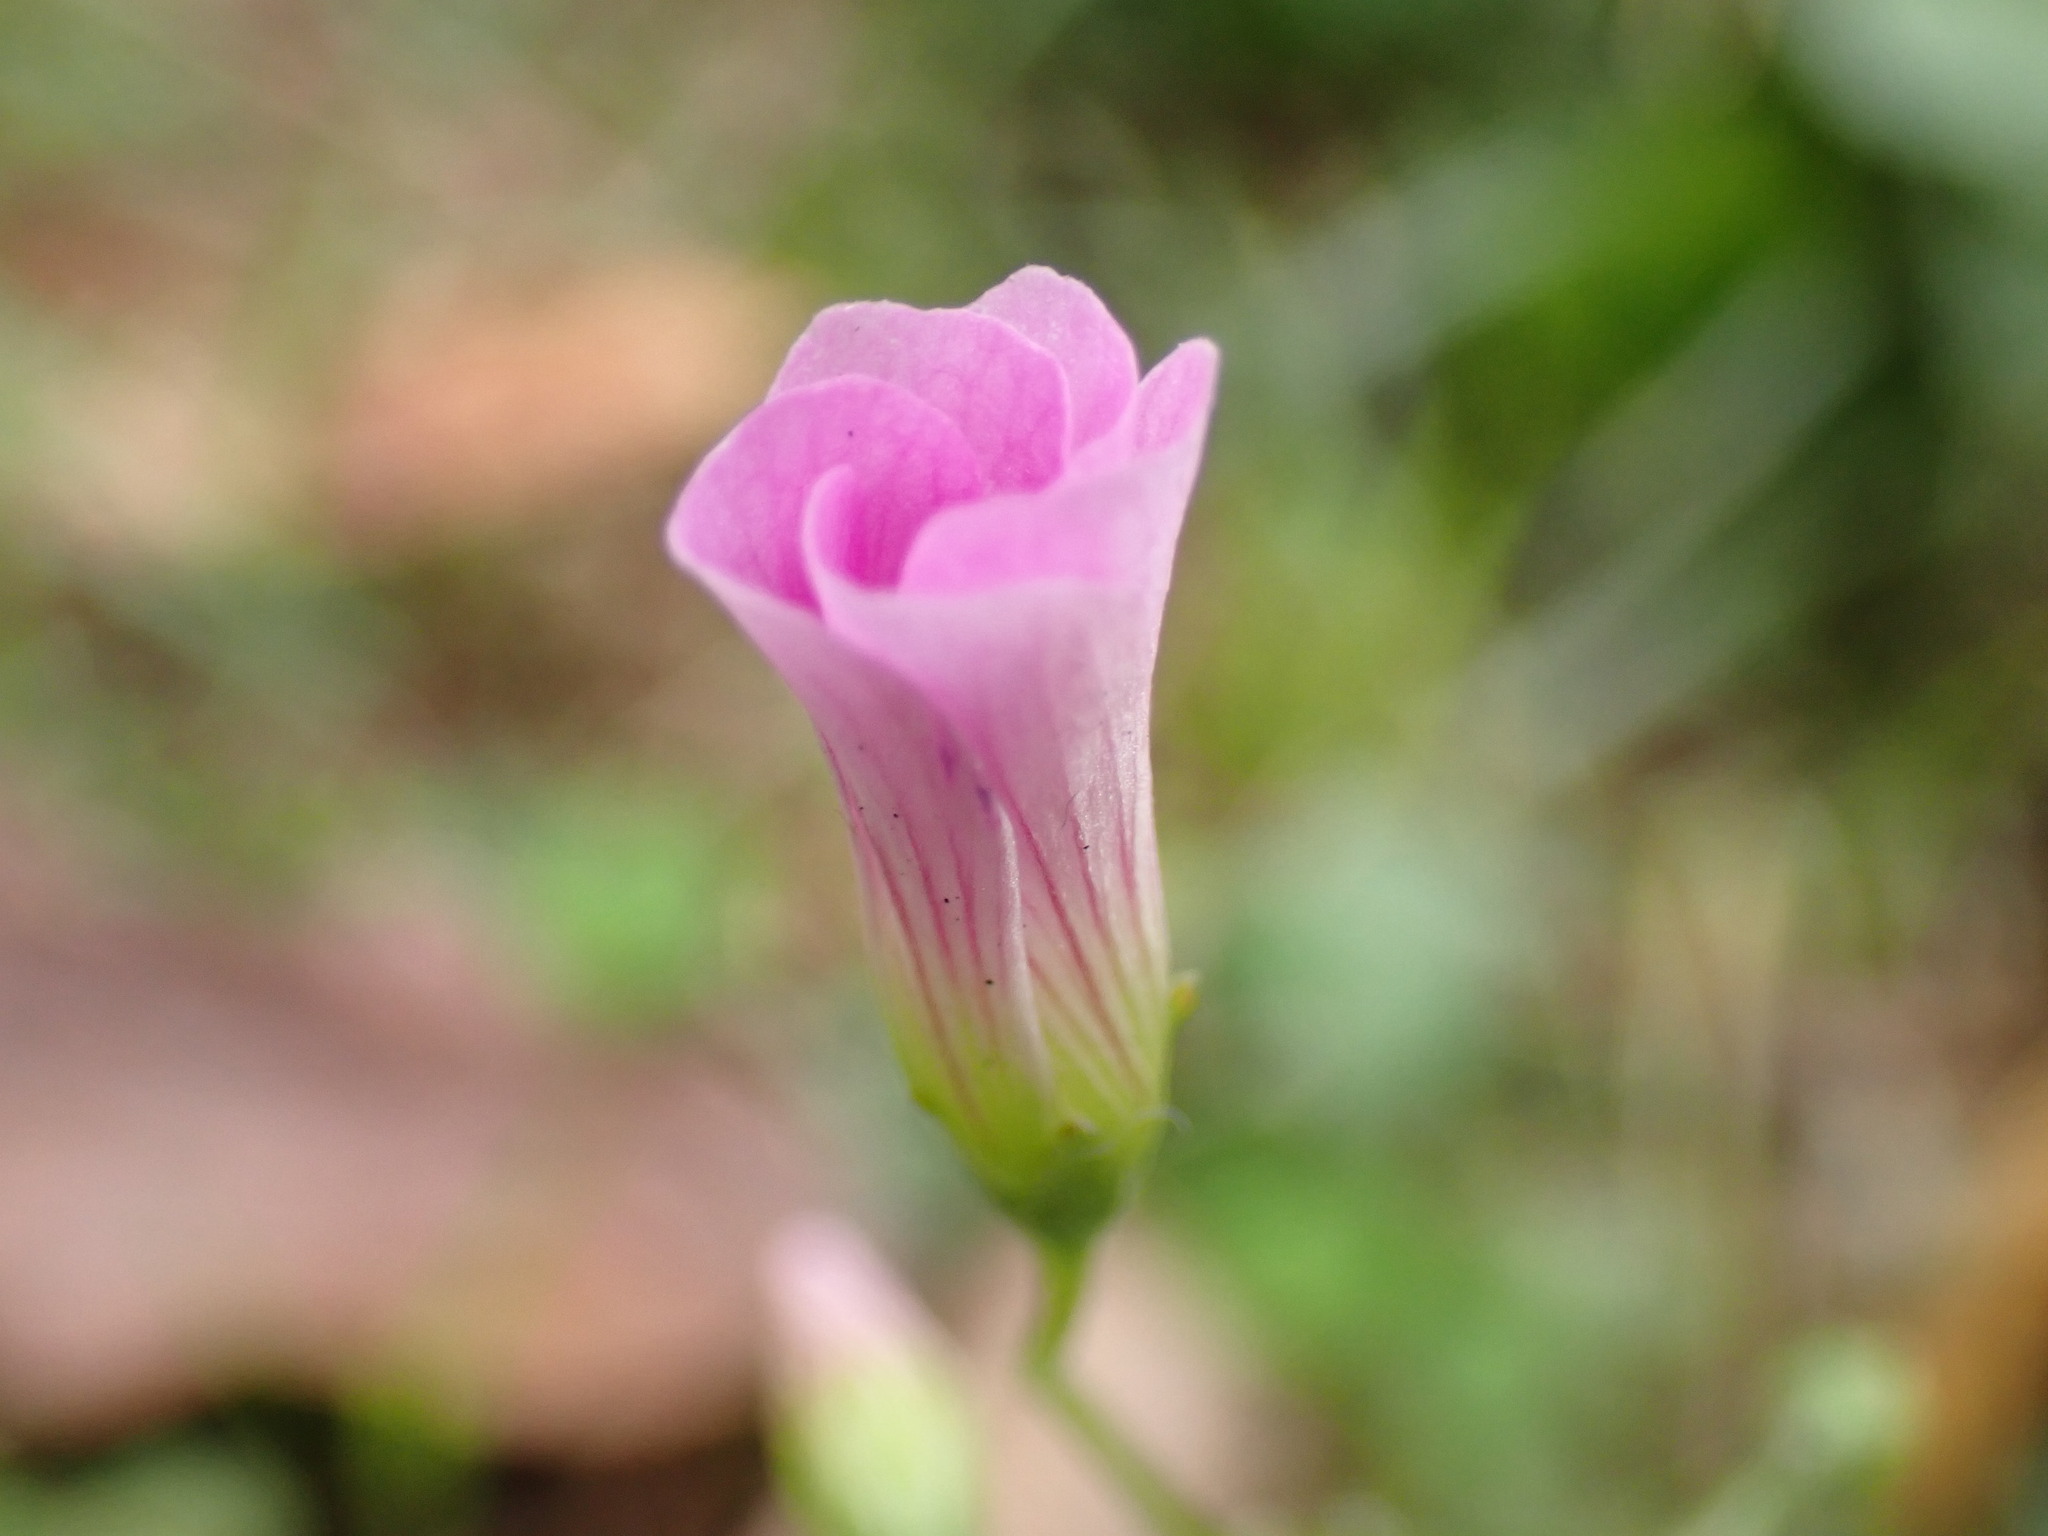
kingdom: Plantae
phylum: Tracheophyta
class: Magnoliopsida
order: Oxalidales
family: Oxalidaceae
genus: Oxalis
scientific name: Oxalis debilis
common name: Large-flowered pink-sorrel
